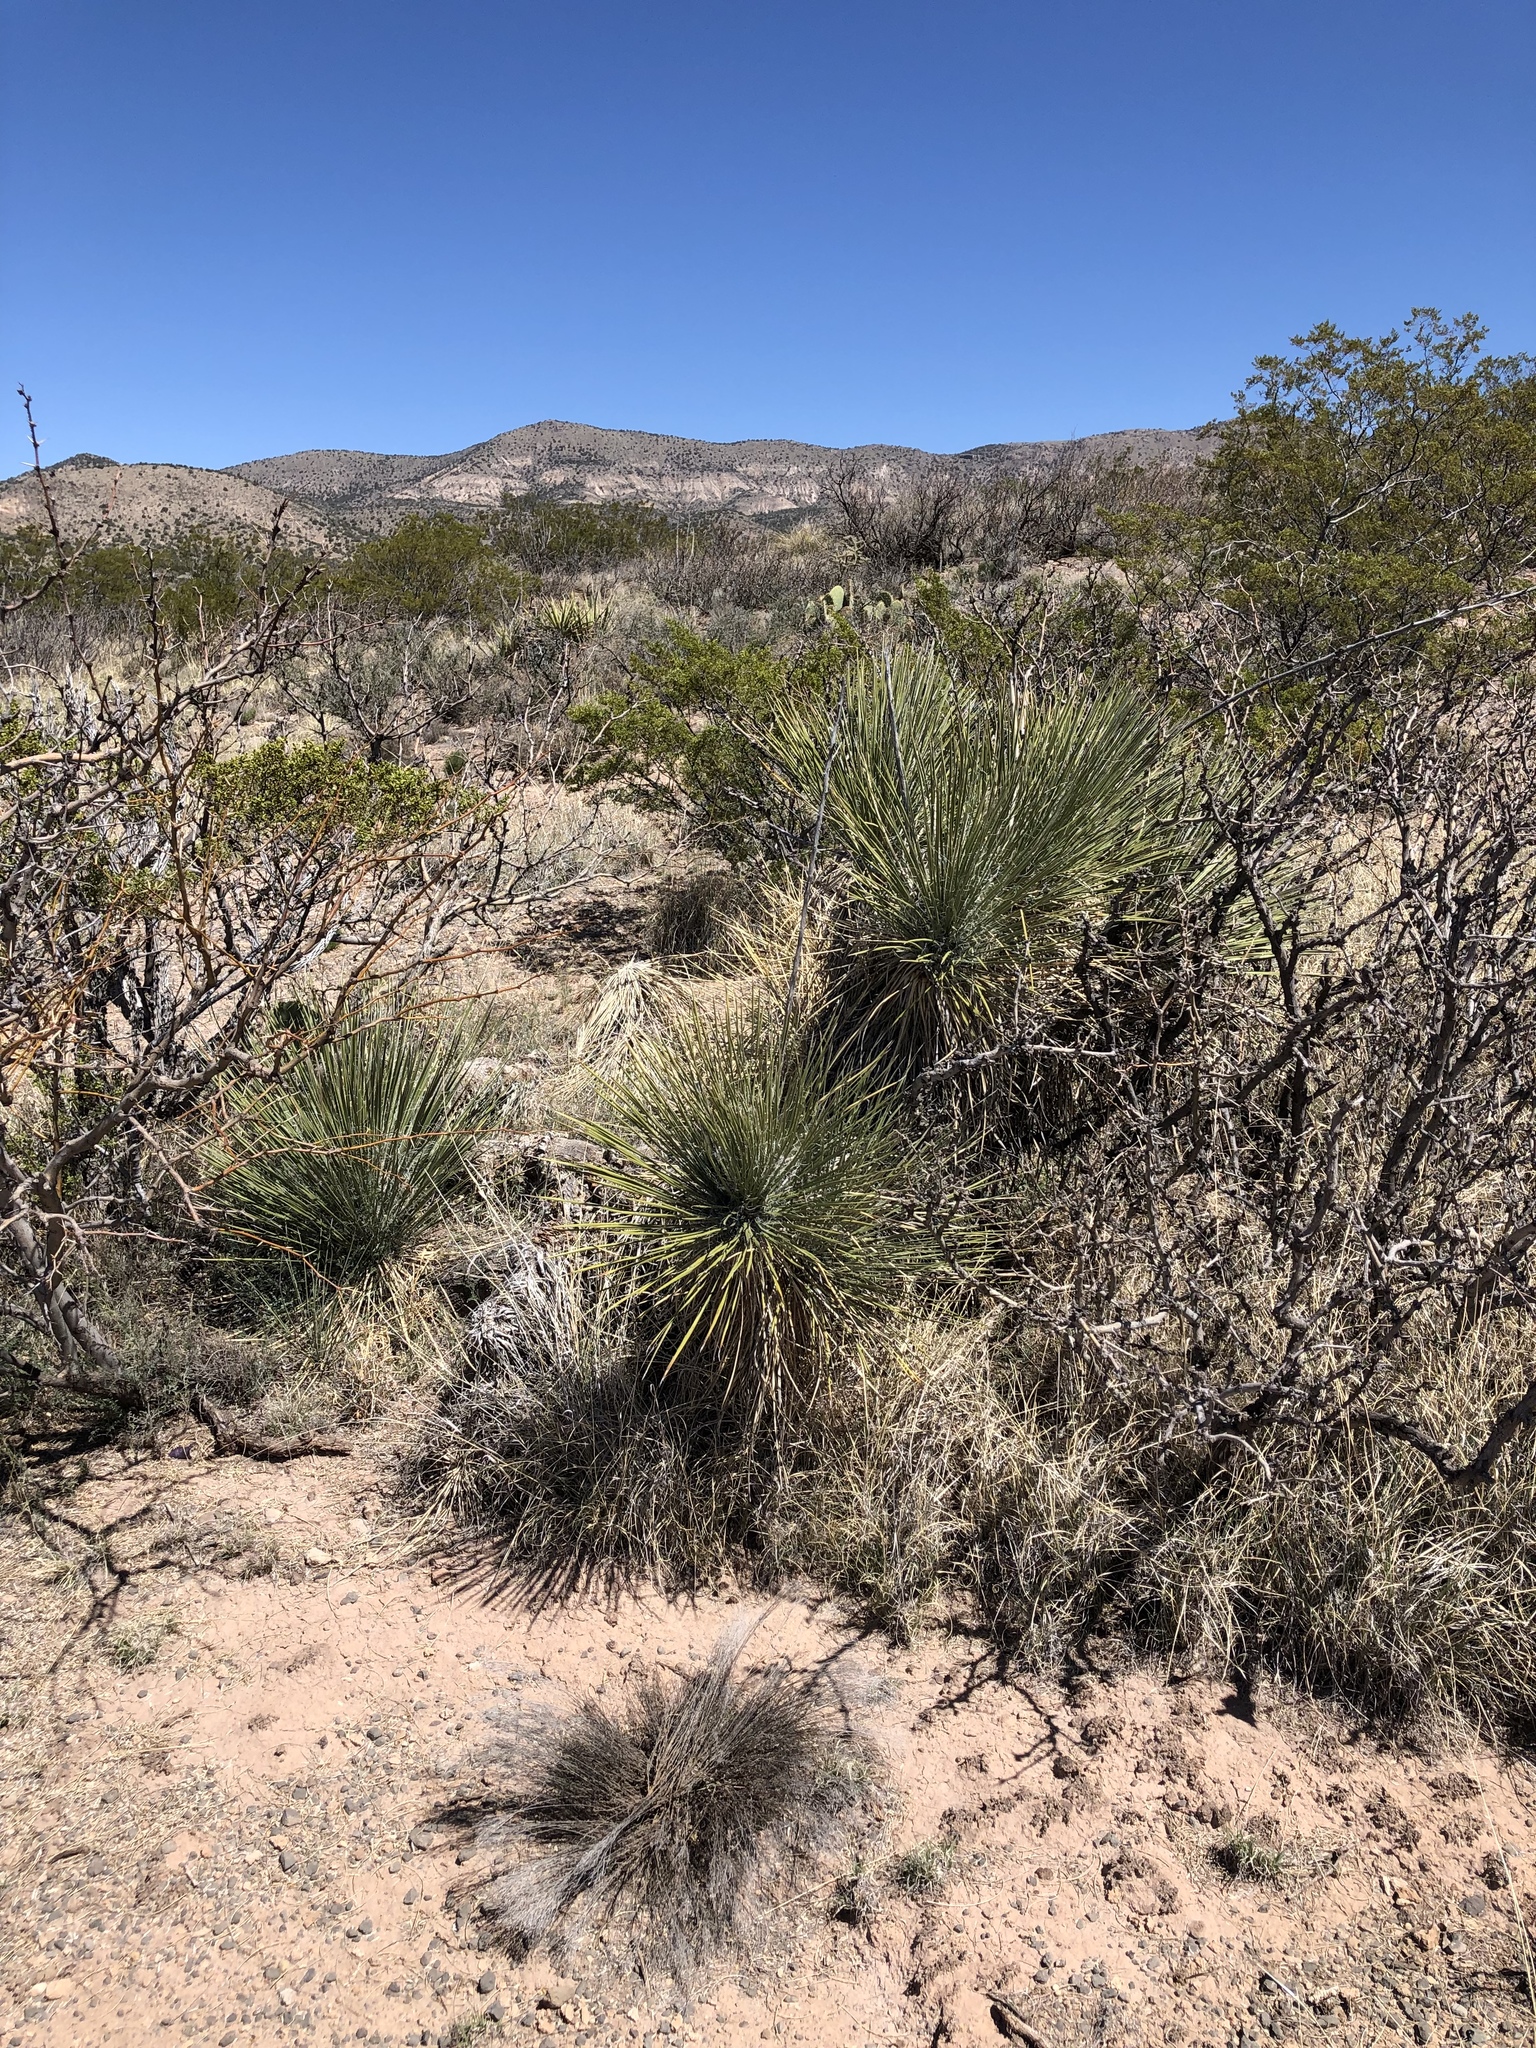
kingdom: Plantae
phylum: Tracheophyta
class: Liliopsida
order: Asparagales
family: Asparagaceae
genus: Yucca
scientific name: Yucca elata
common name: Palmella
